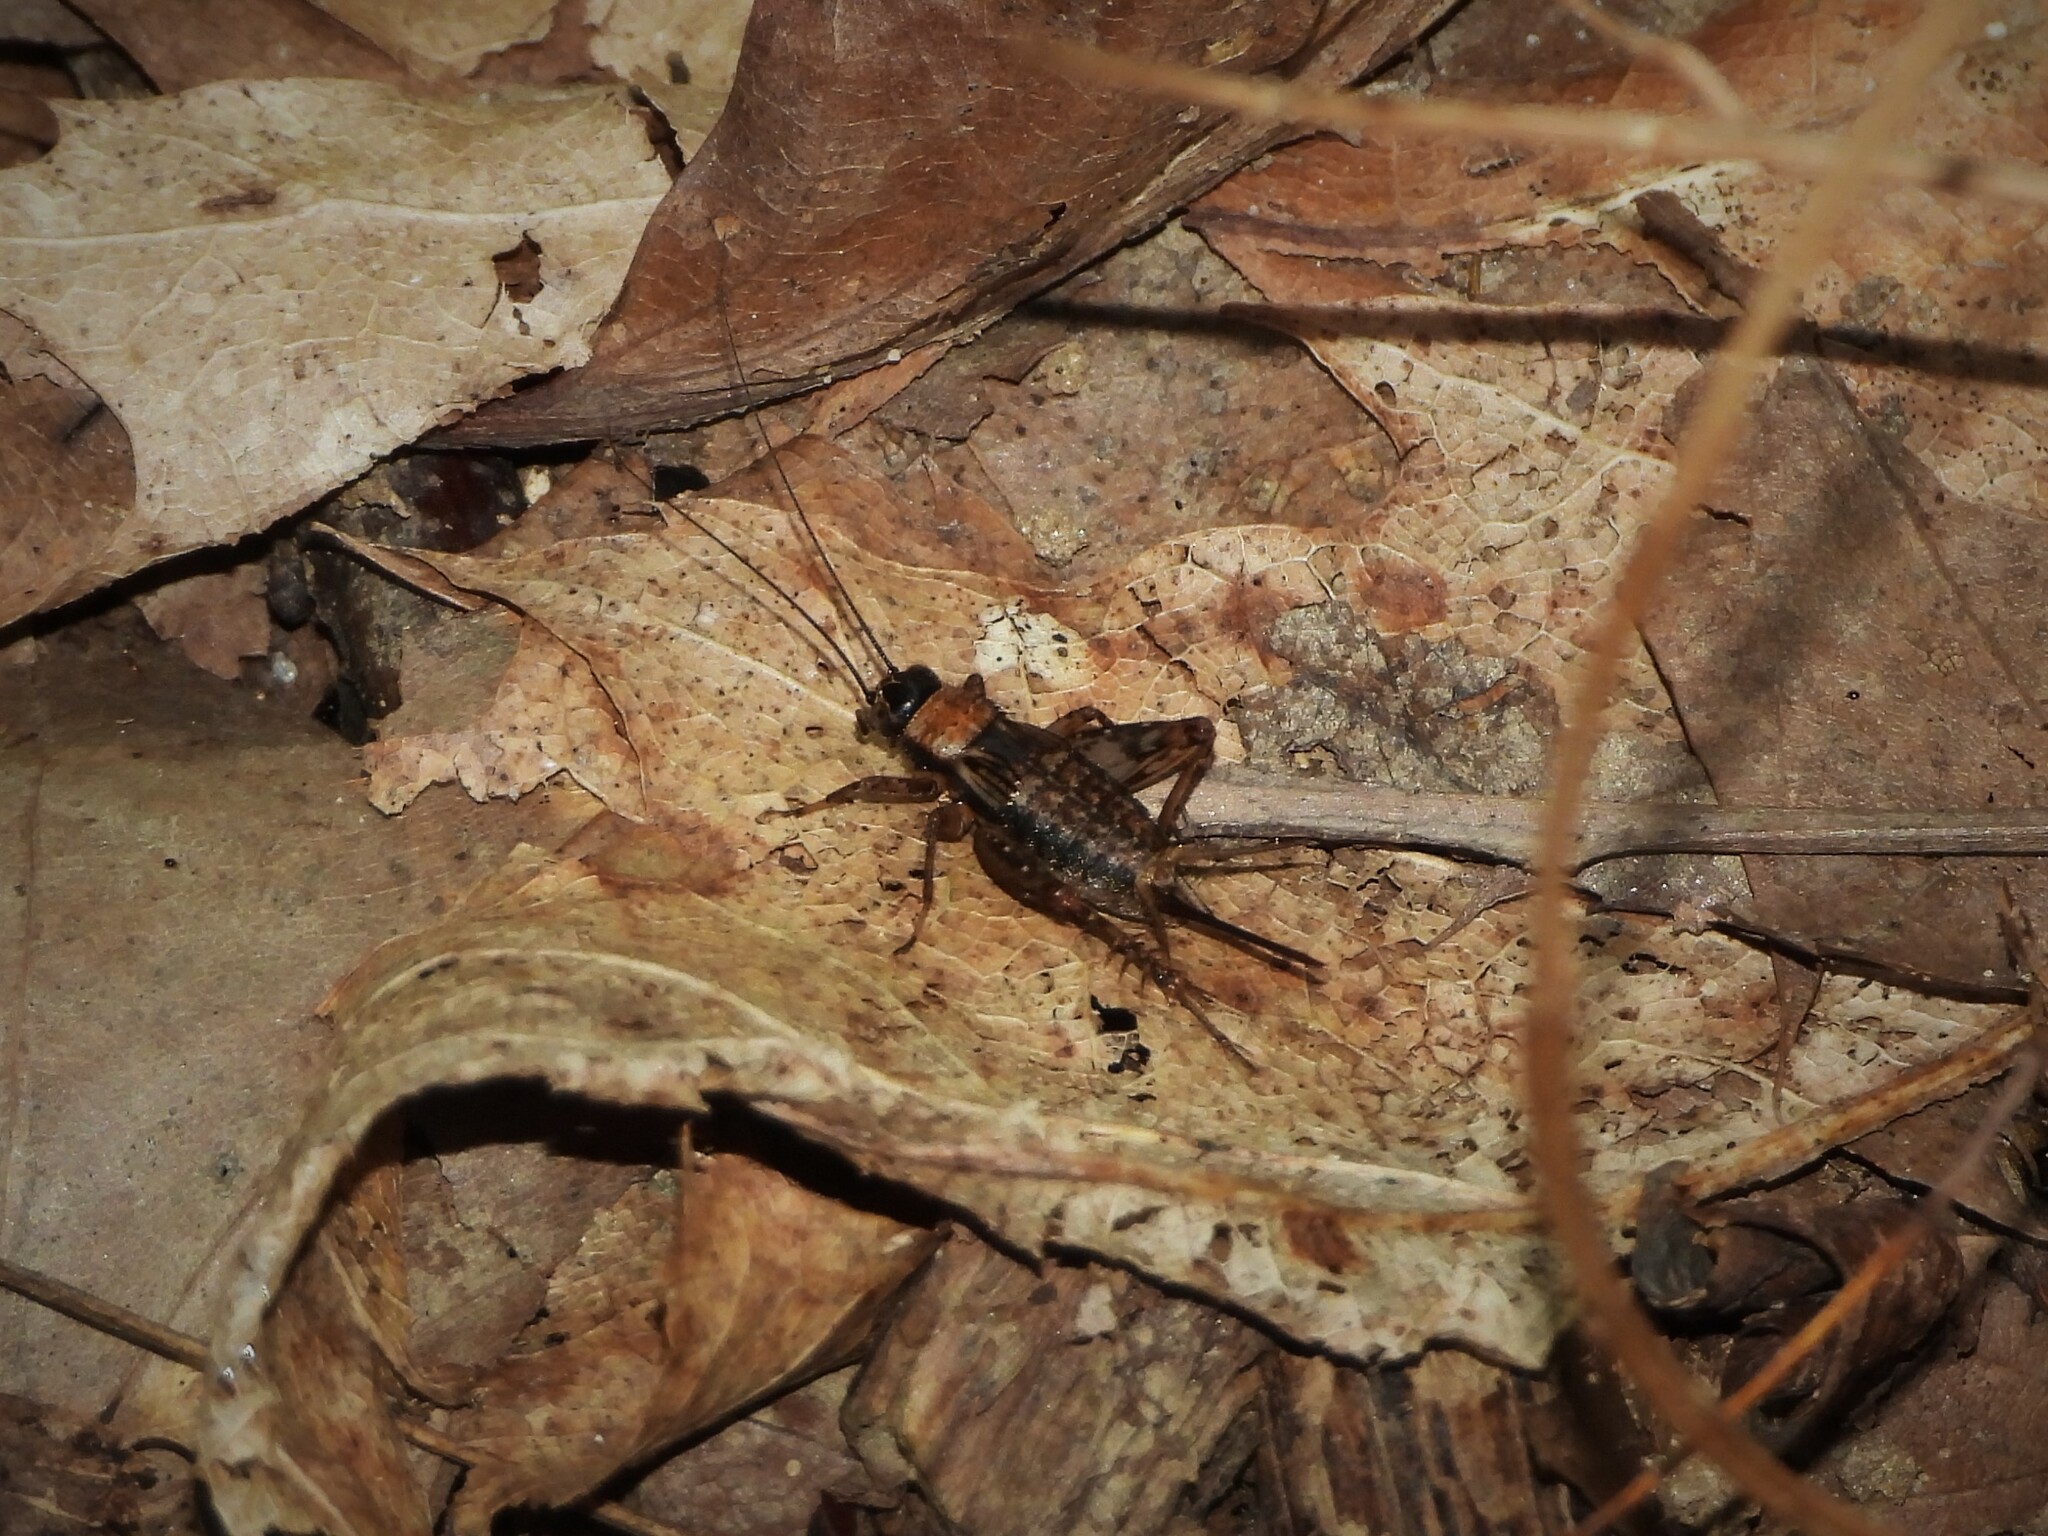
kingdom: Animalia
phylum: Arthropoda
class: Insecta
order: Orthoptera
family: Trigonidiidae
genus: Nemobius
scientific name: Nemobius sylvestris
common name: Wood-cricket
